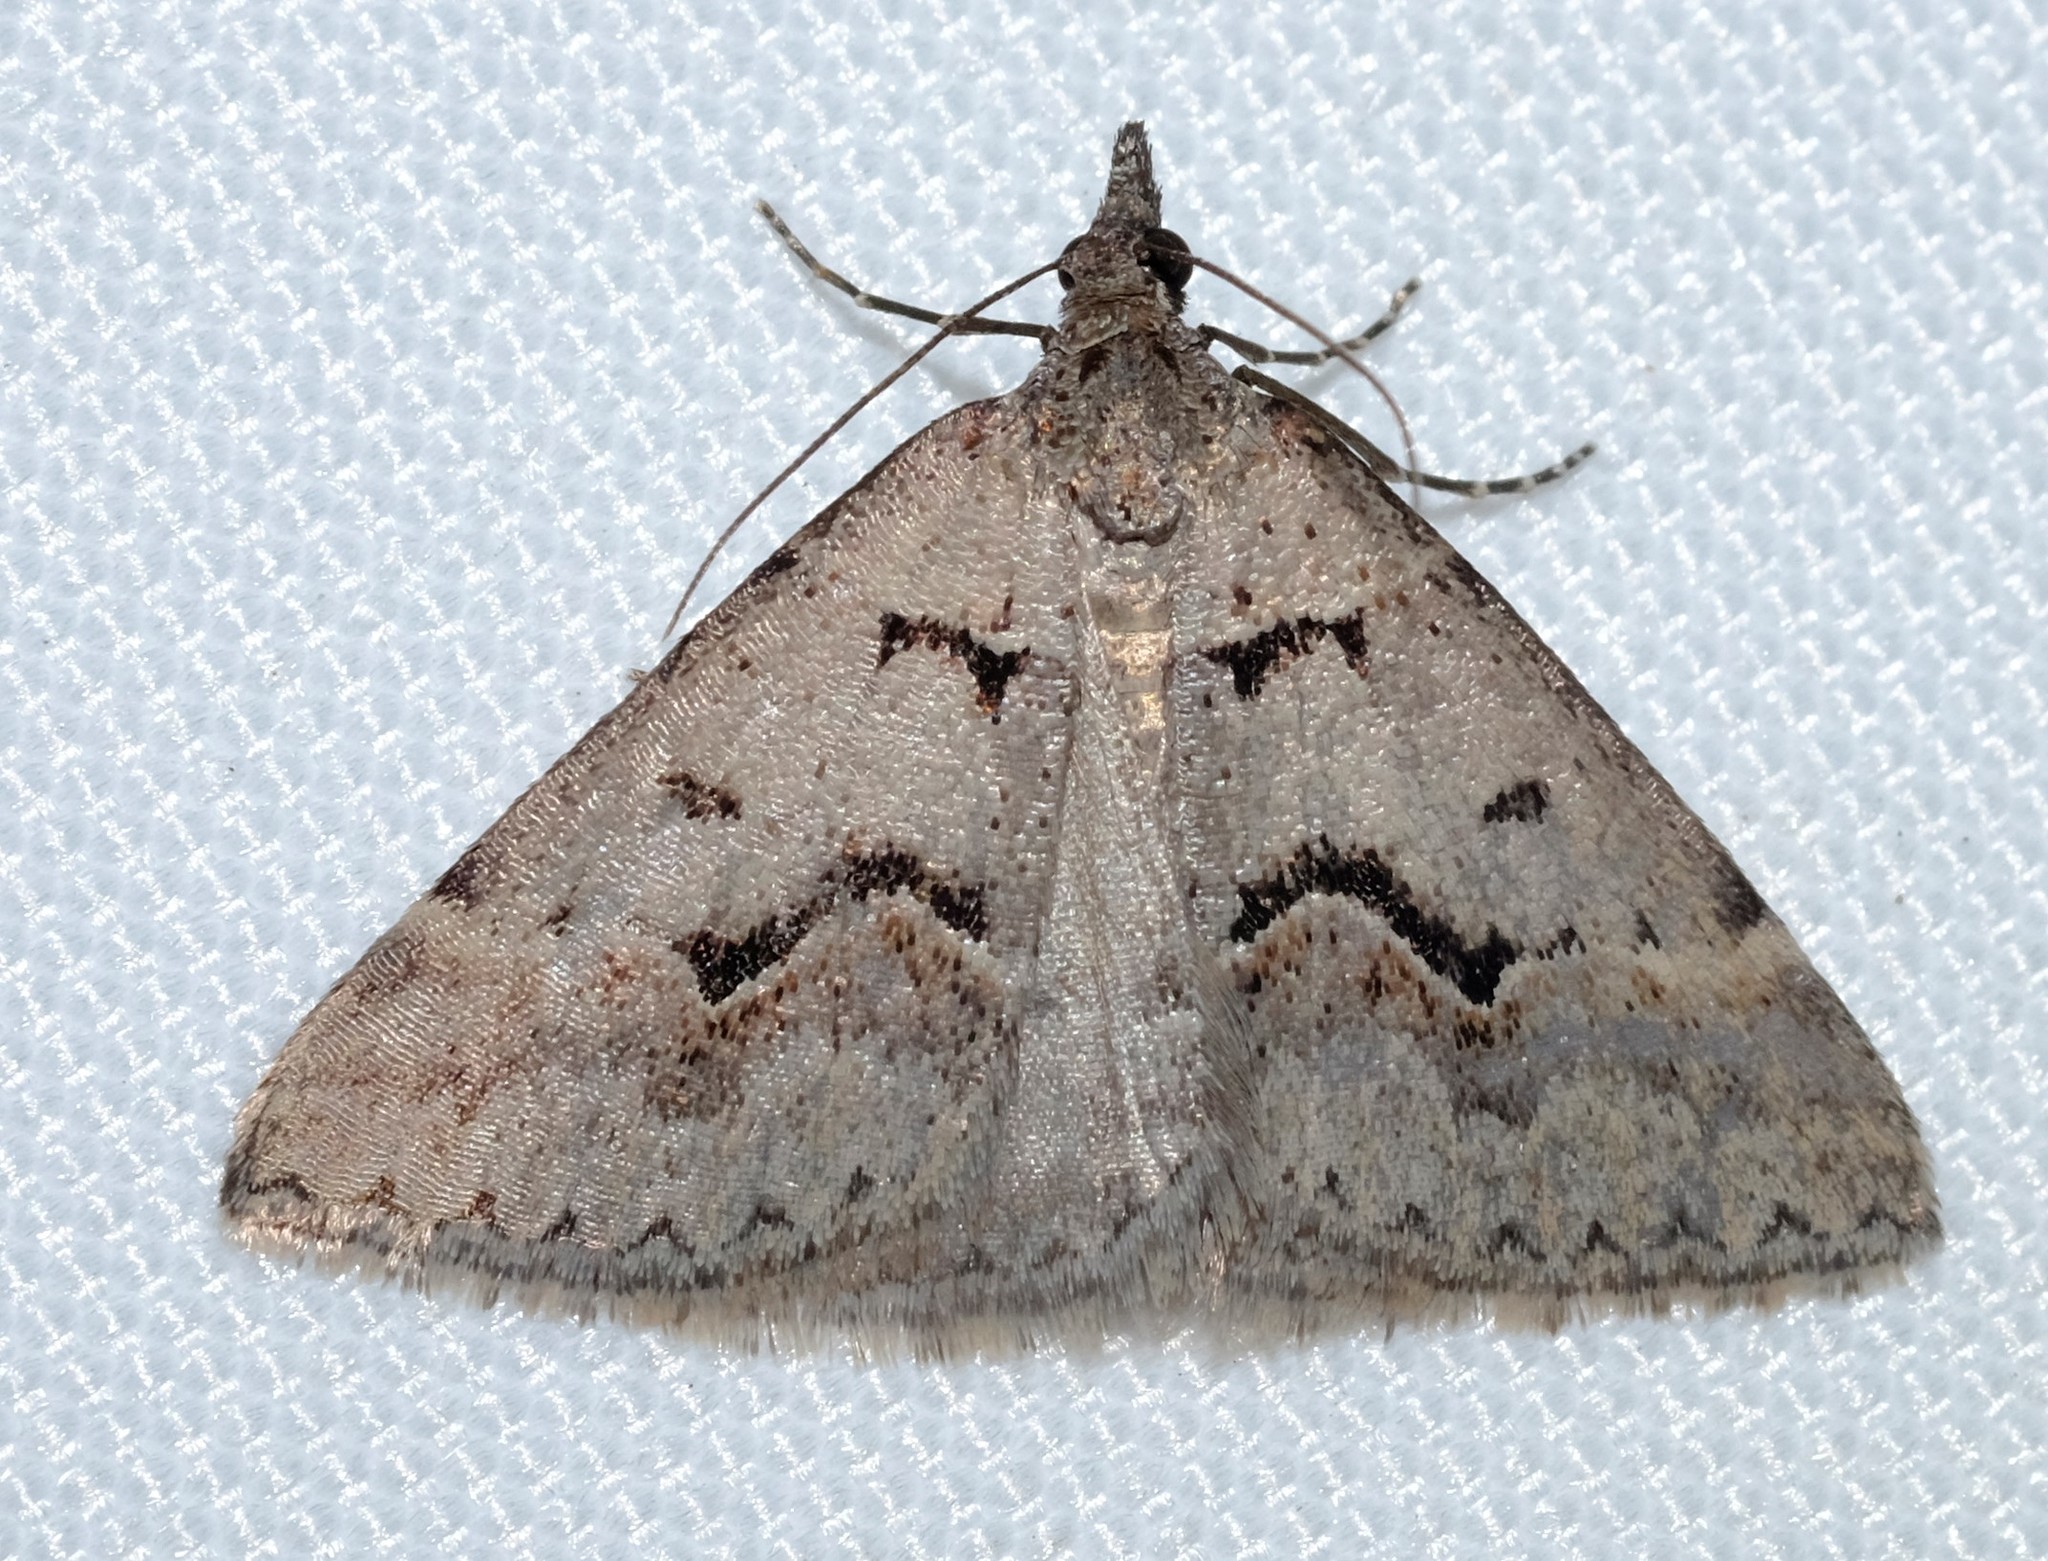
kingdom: Animalia
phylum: Arthropoda
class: Insecta
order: Lepidoptera
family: Geometridae
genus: Dichromodes
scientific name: Dichromodes atrosignata
